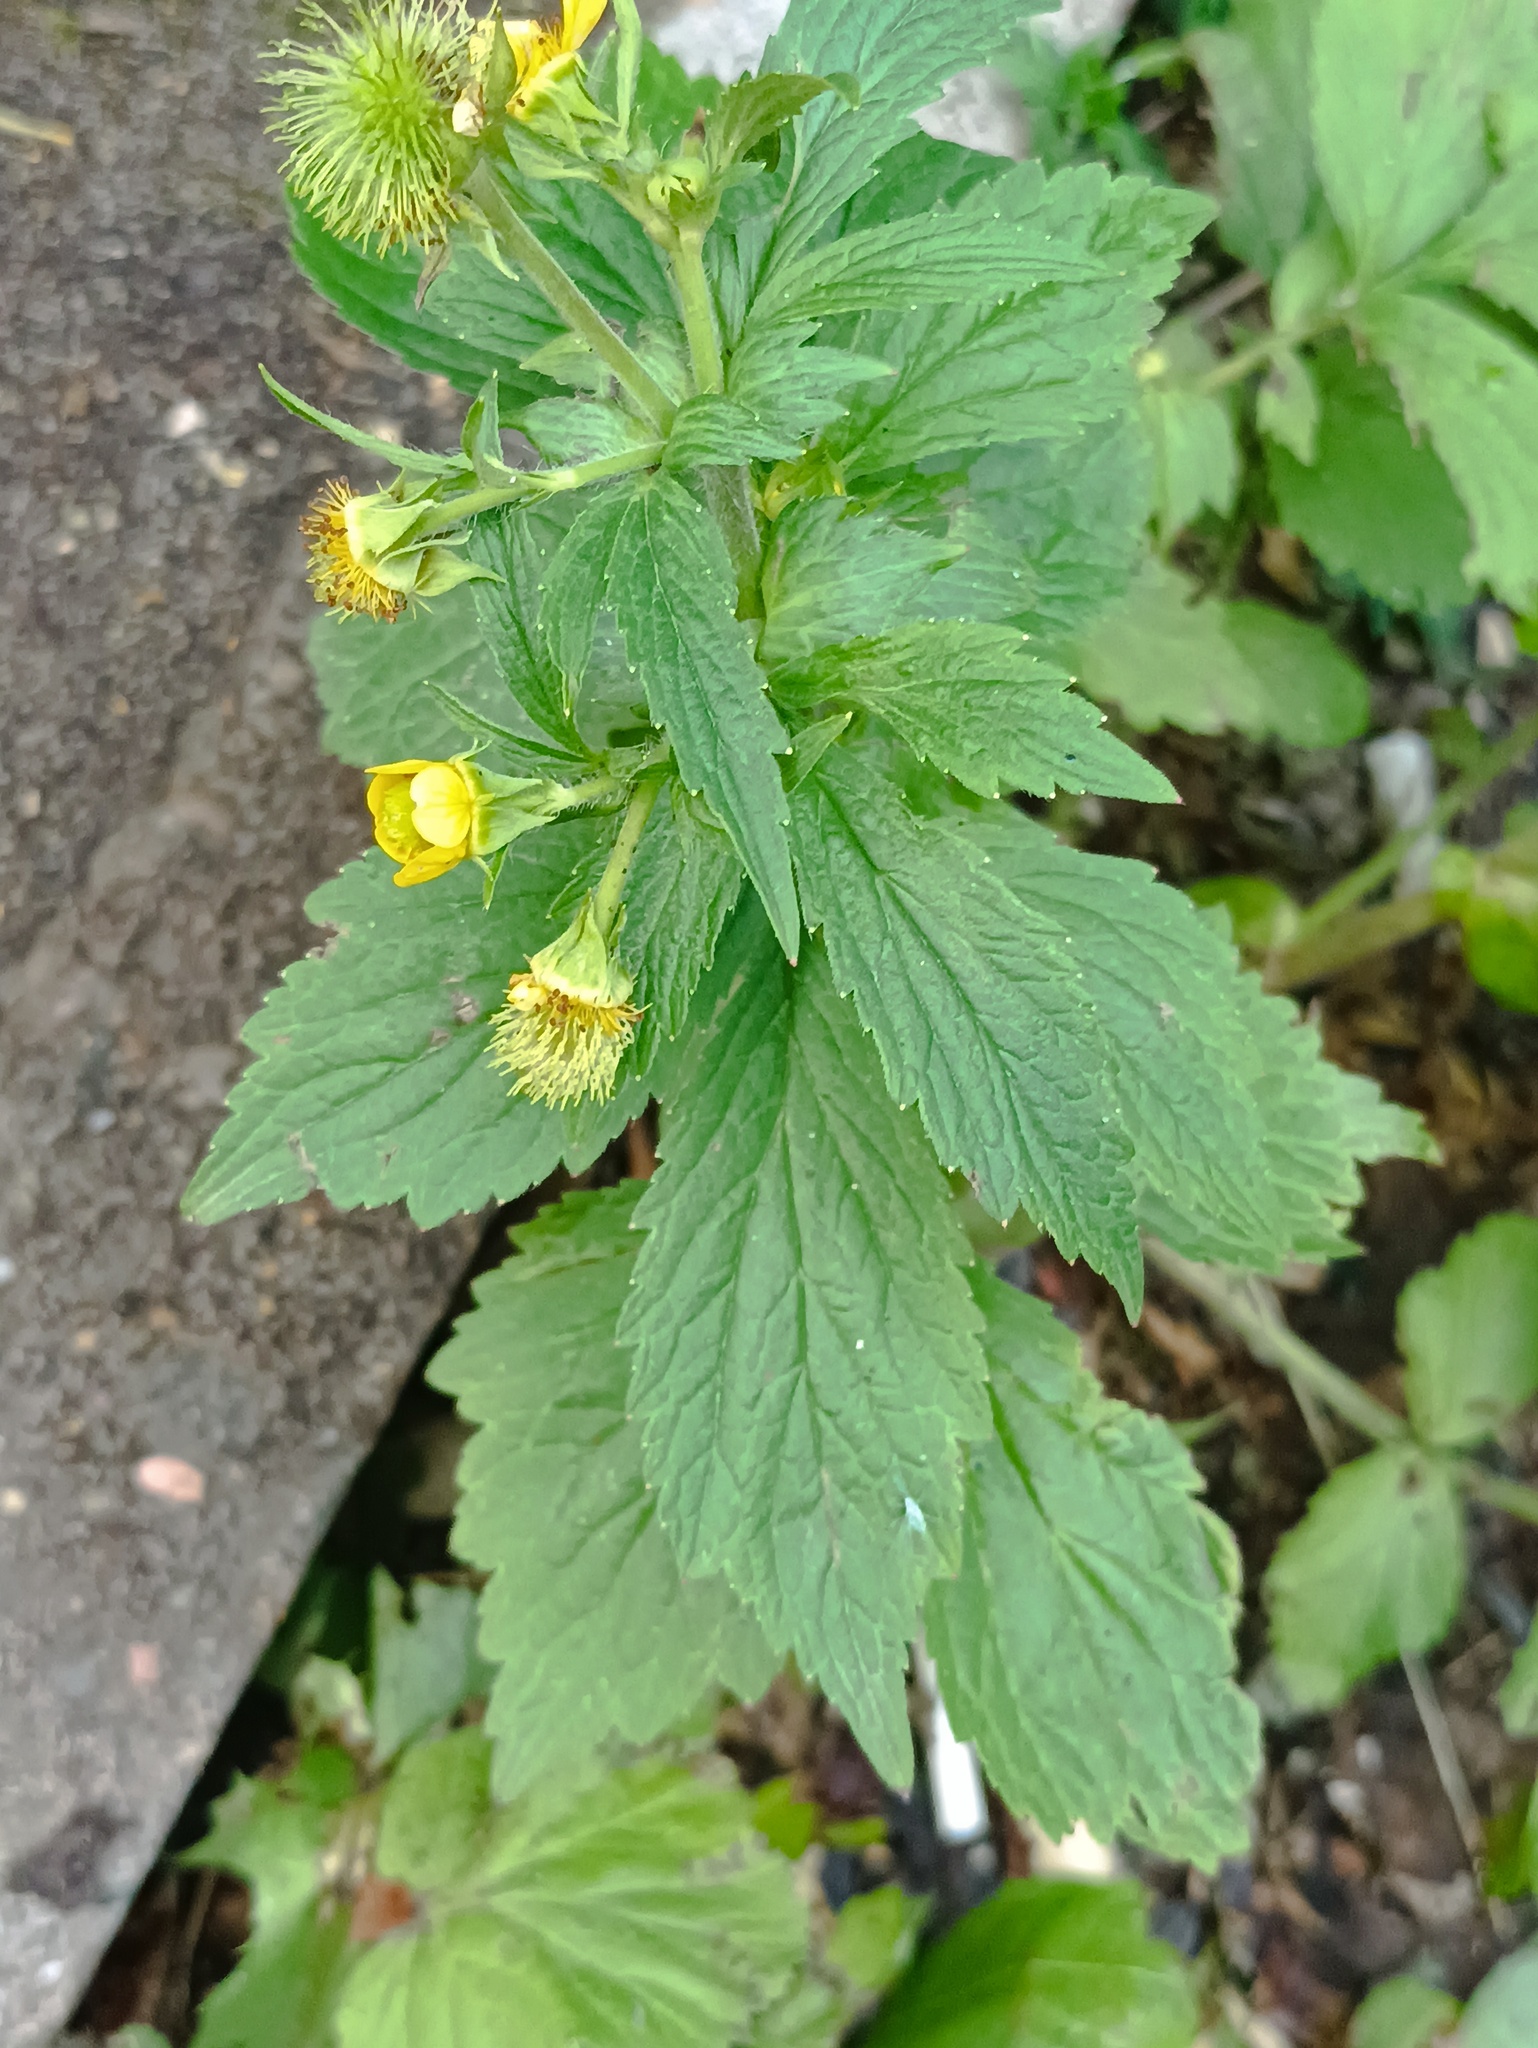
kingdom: Plantae
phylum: Tracheophyta
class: Magnoliopsida
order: Rosales
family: Rosaceae
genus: Geum
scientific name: Geum aleppicum
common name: Yellow avens
